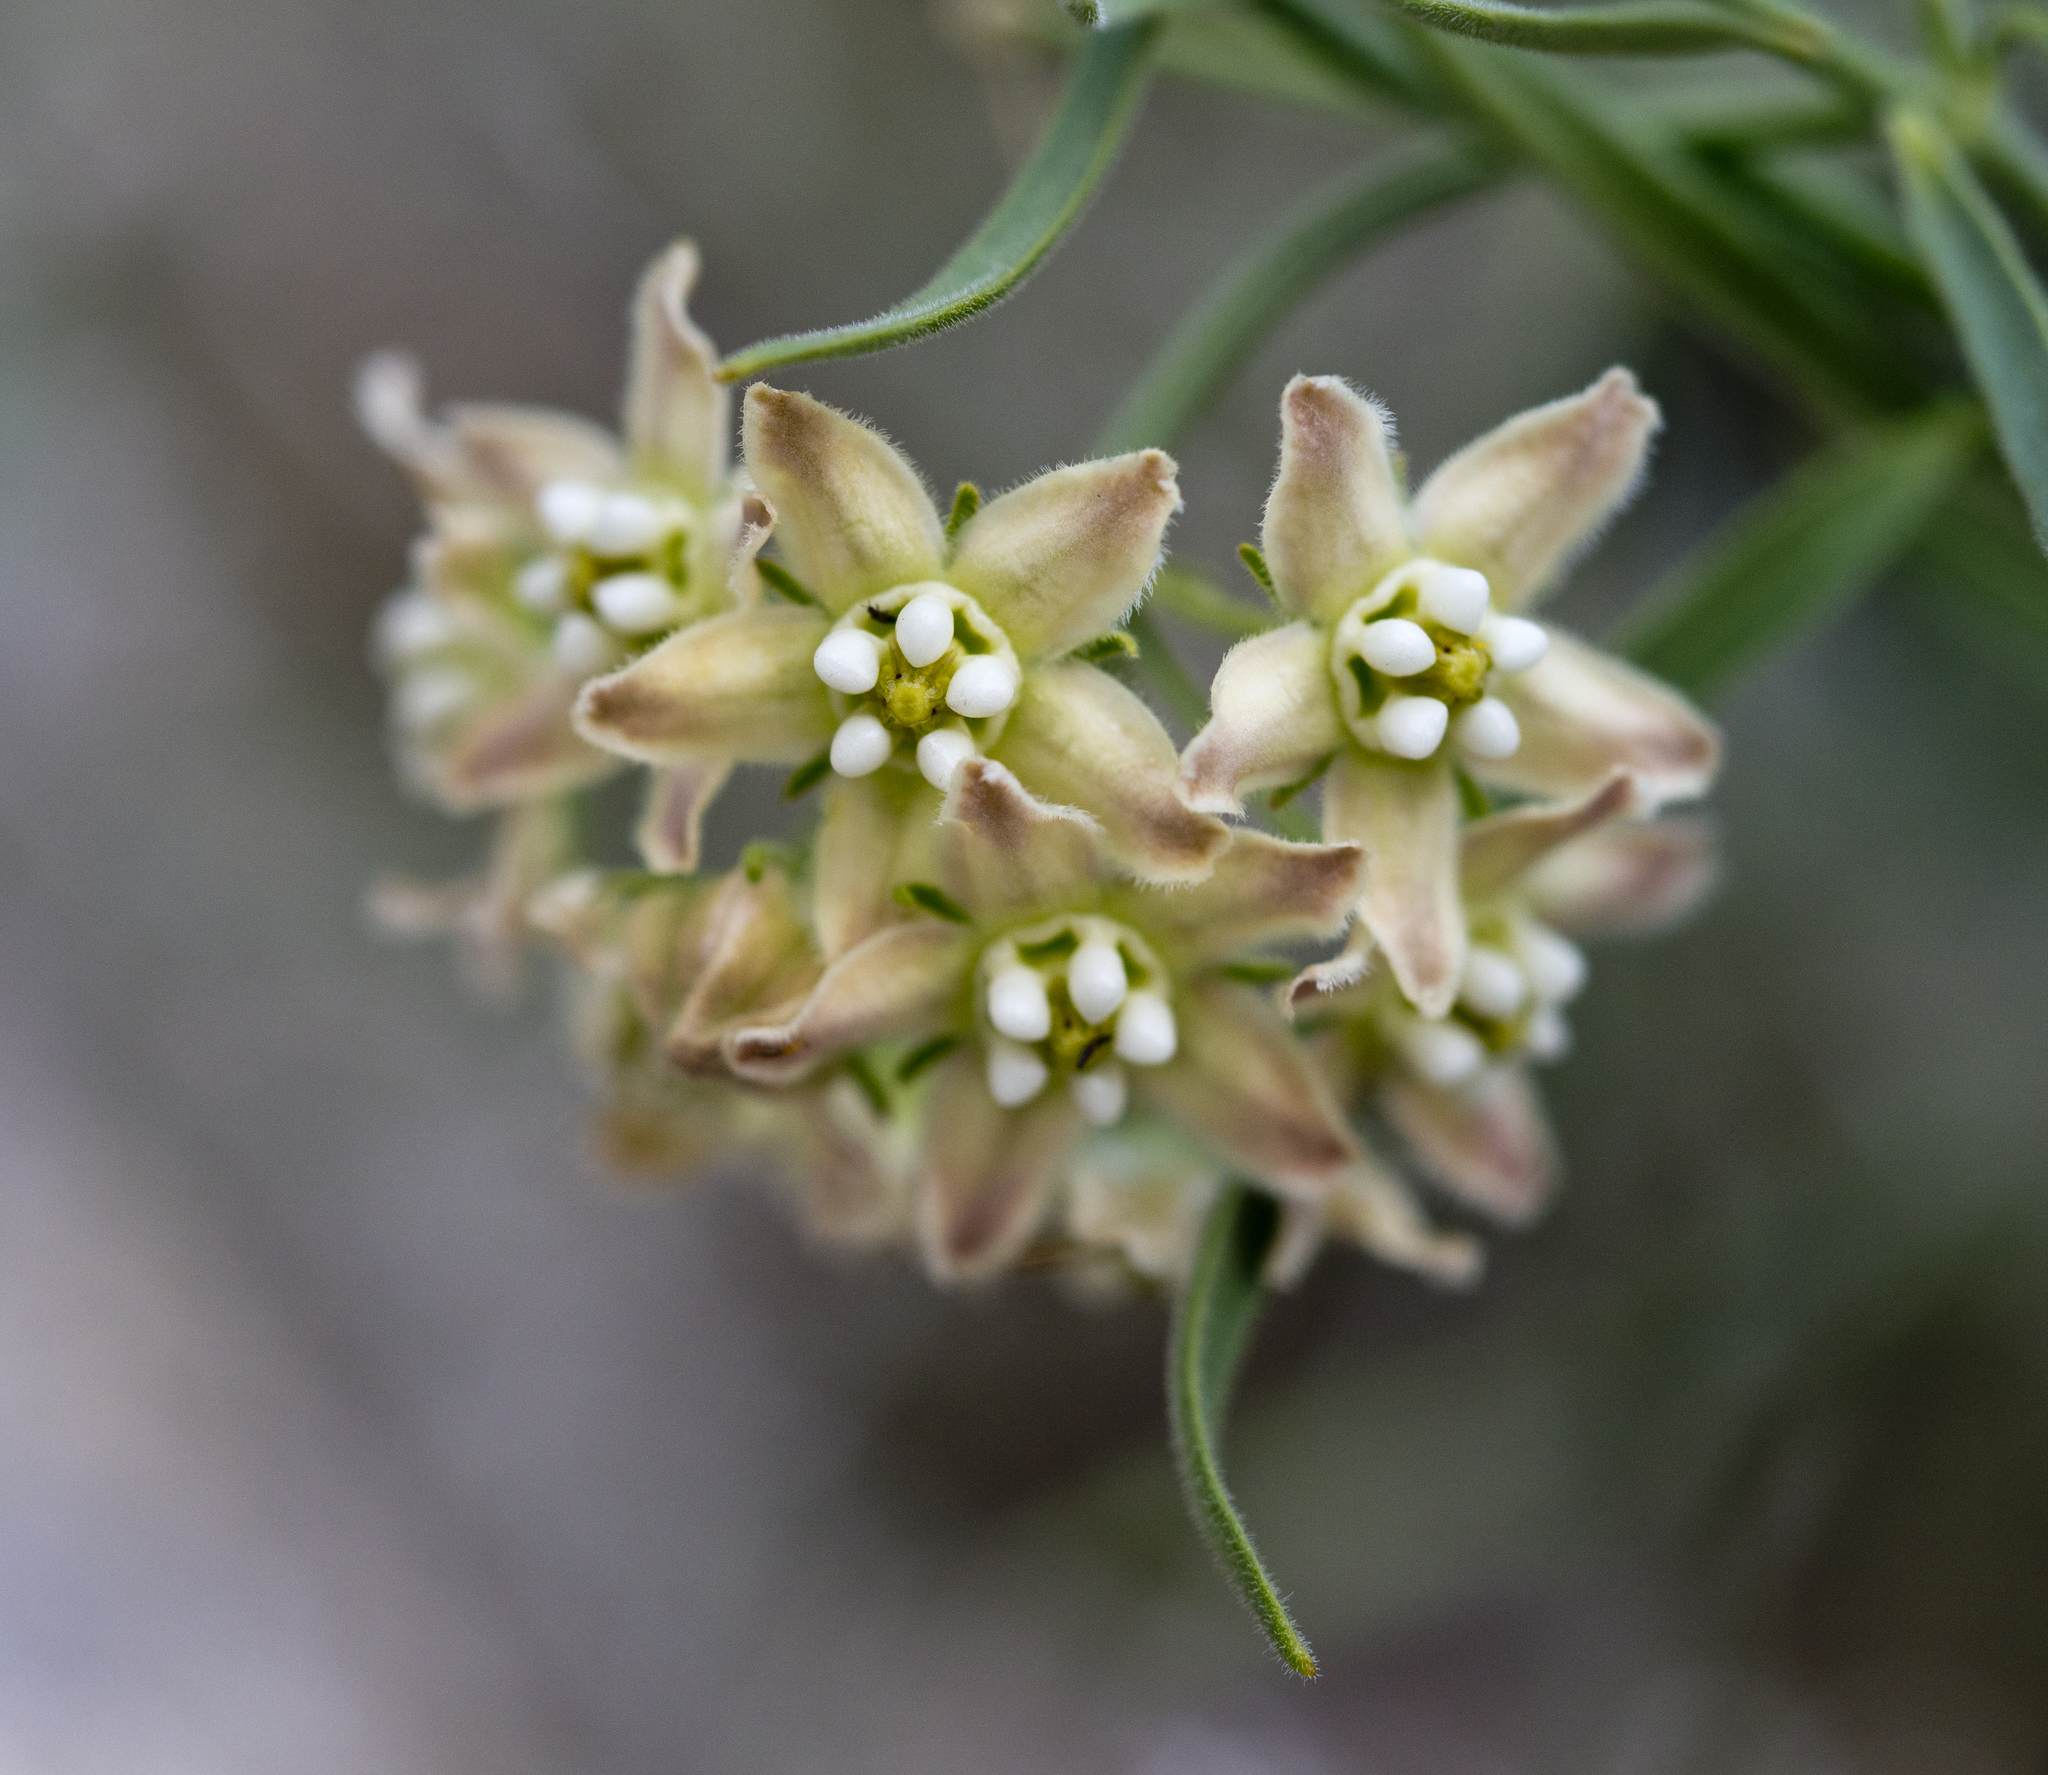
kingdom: Plantae
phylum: Tracheophyta
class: Magnoliopsida
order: Gentianales
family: Apocynaceae
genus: Funastrum
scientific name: Funastrum hirtellum
